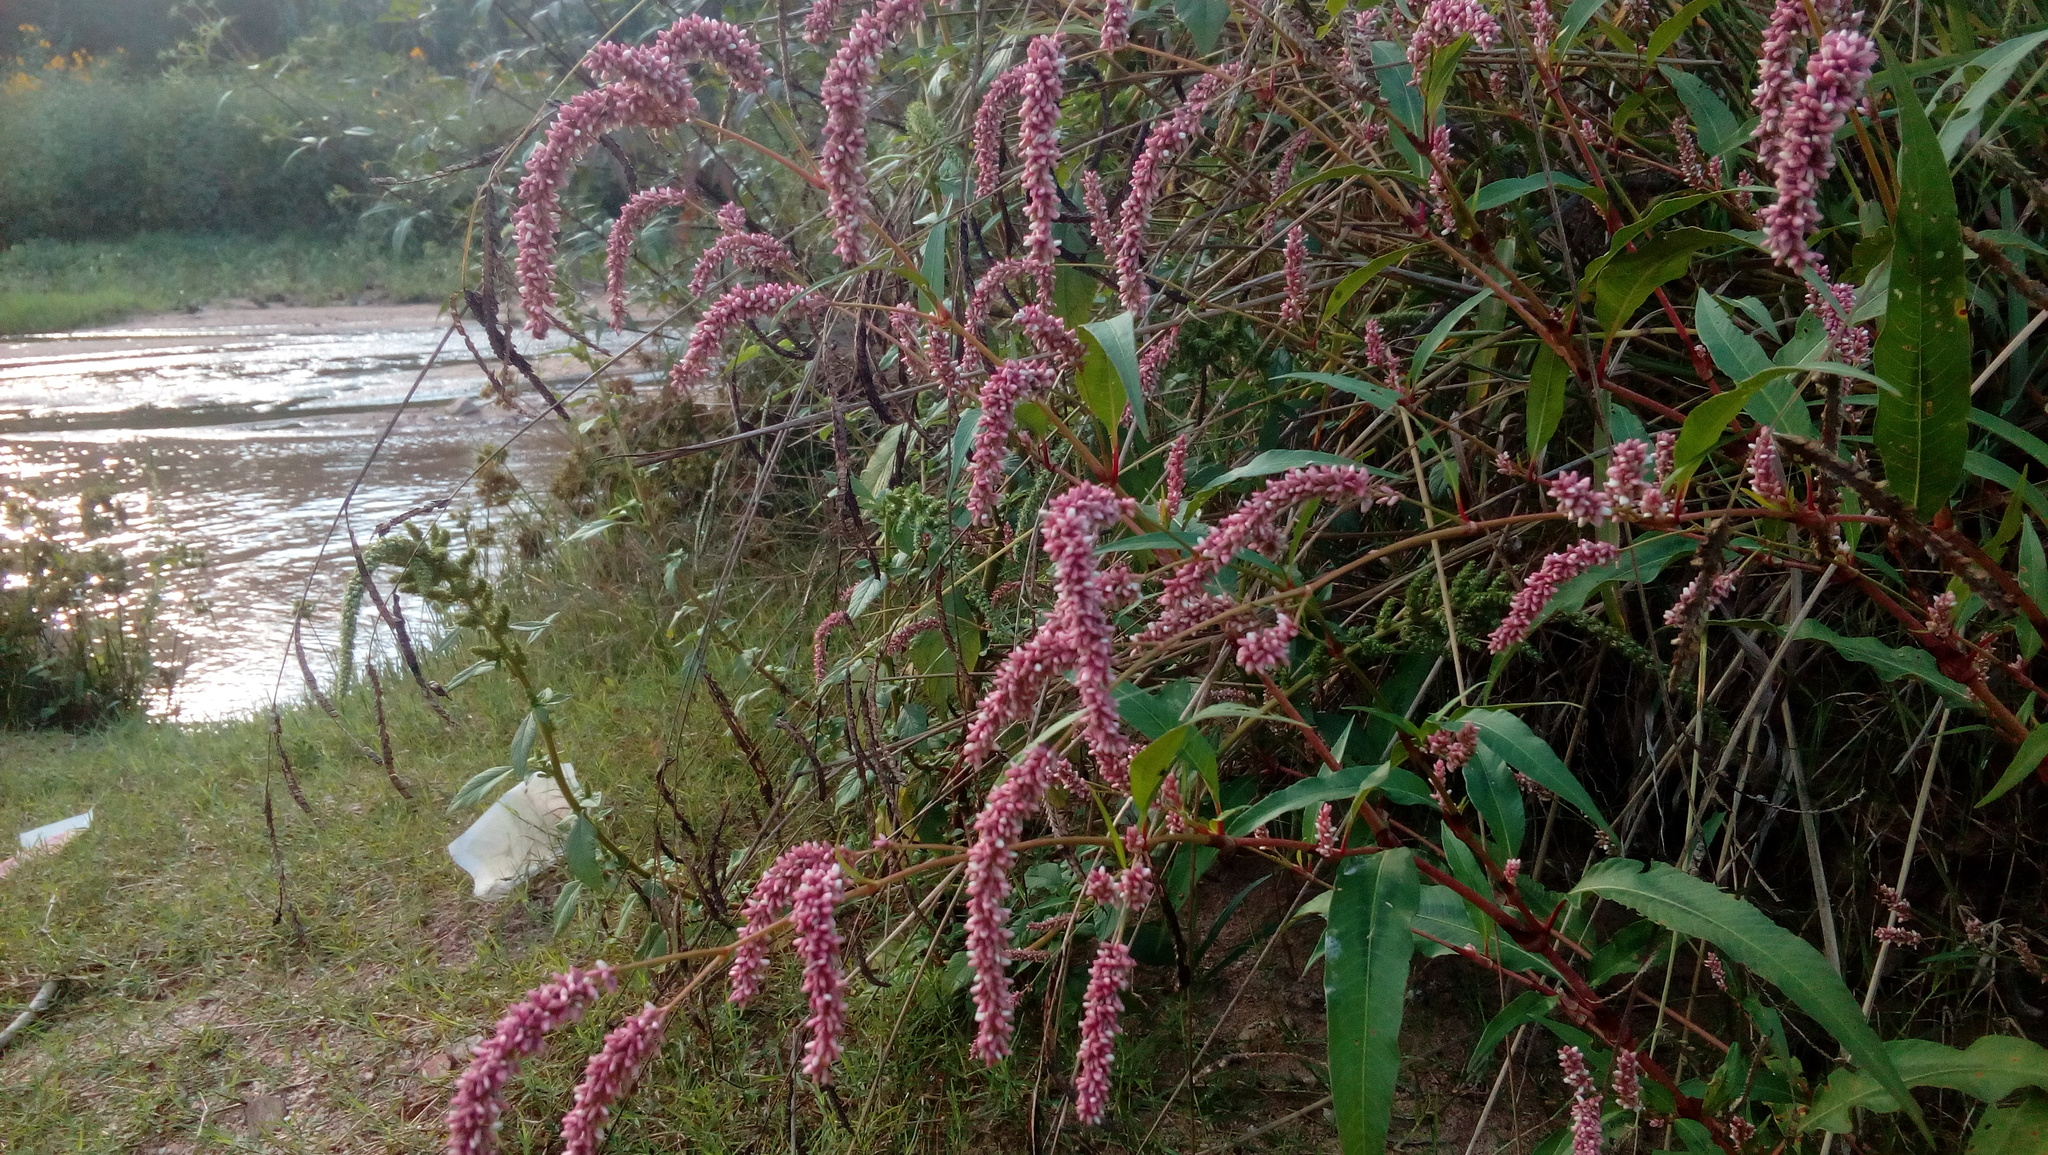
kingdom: Plantae
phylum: Tracheophyta
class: Magnoliopsida
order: Caryophyllales
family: Polygonaceae
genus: Persicaria
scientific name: Persicaria maculosa
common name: Redshank
